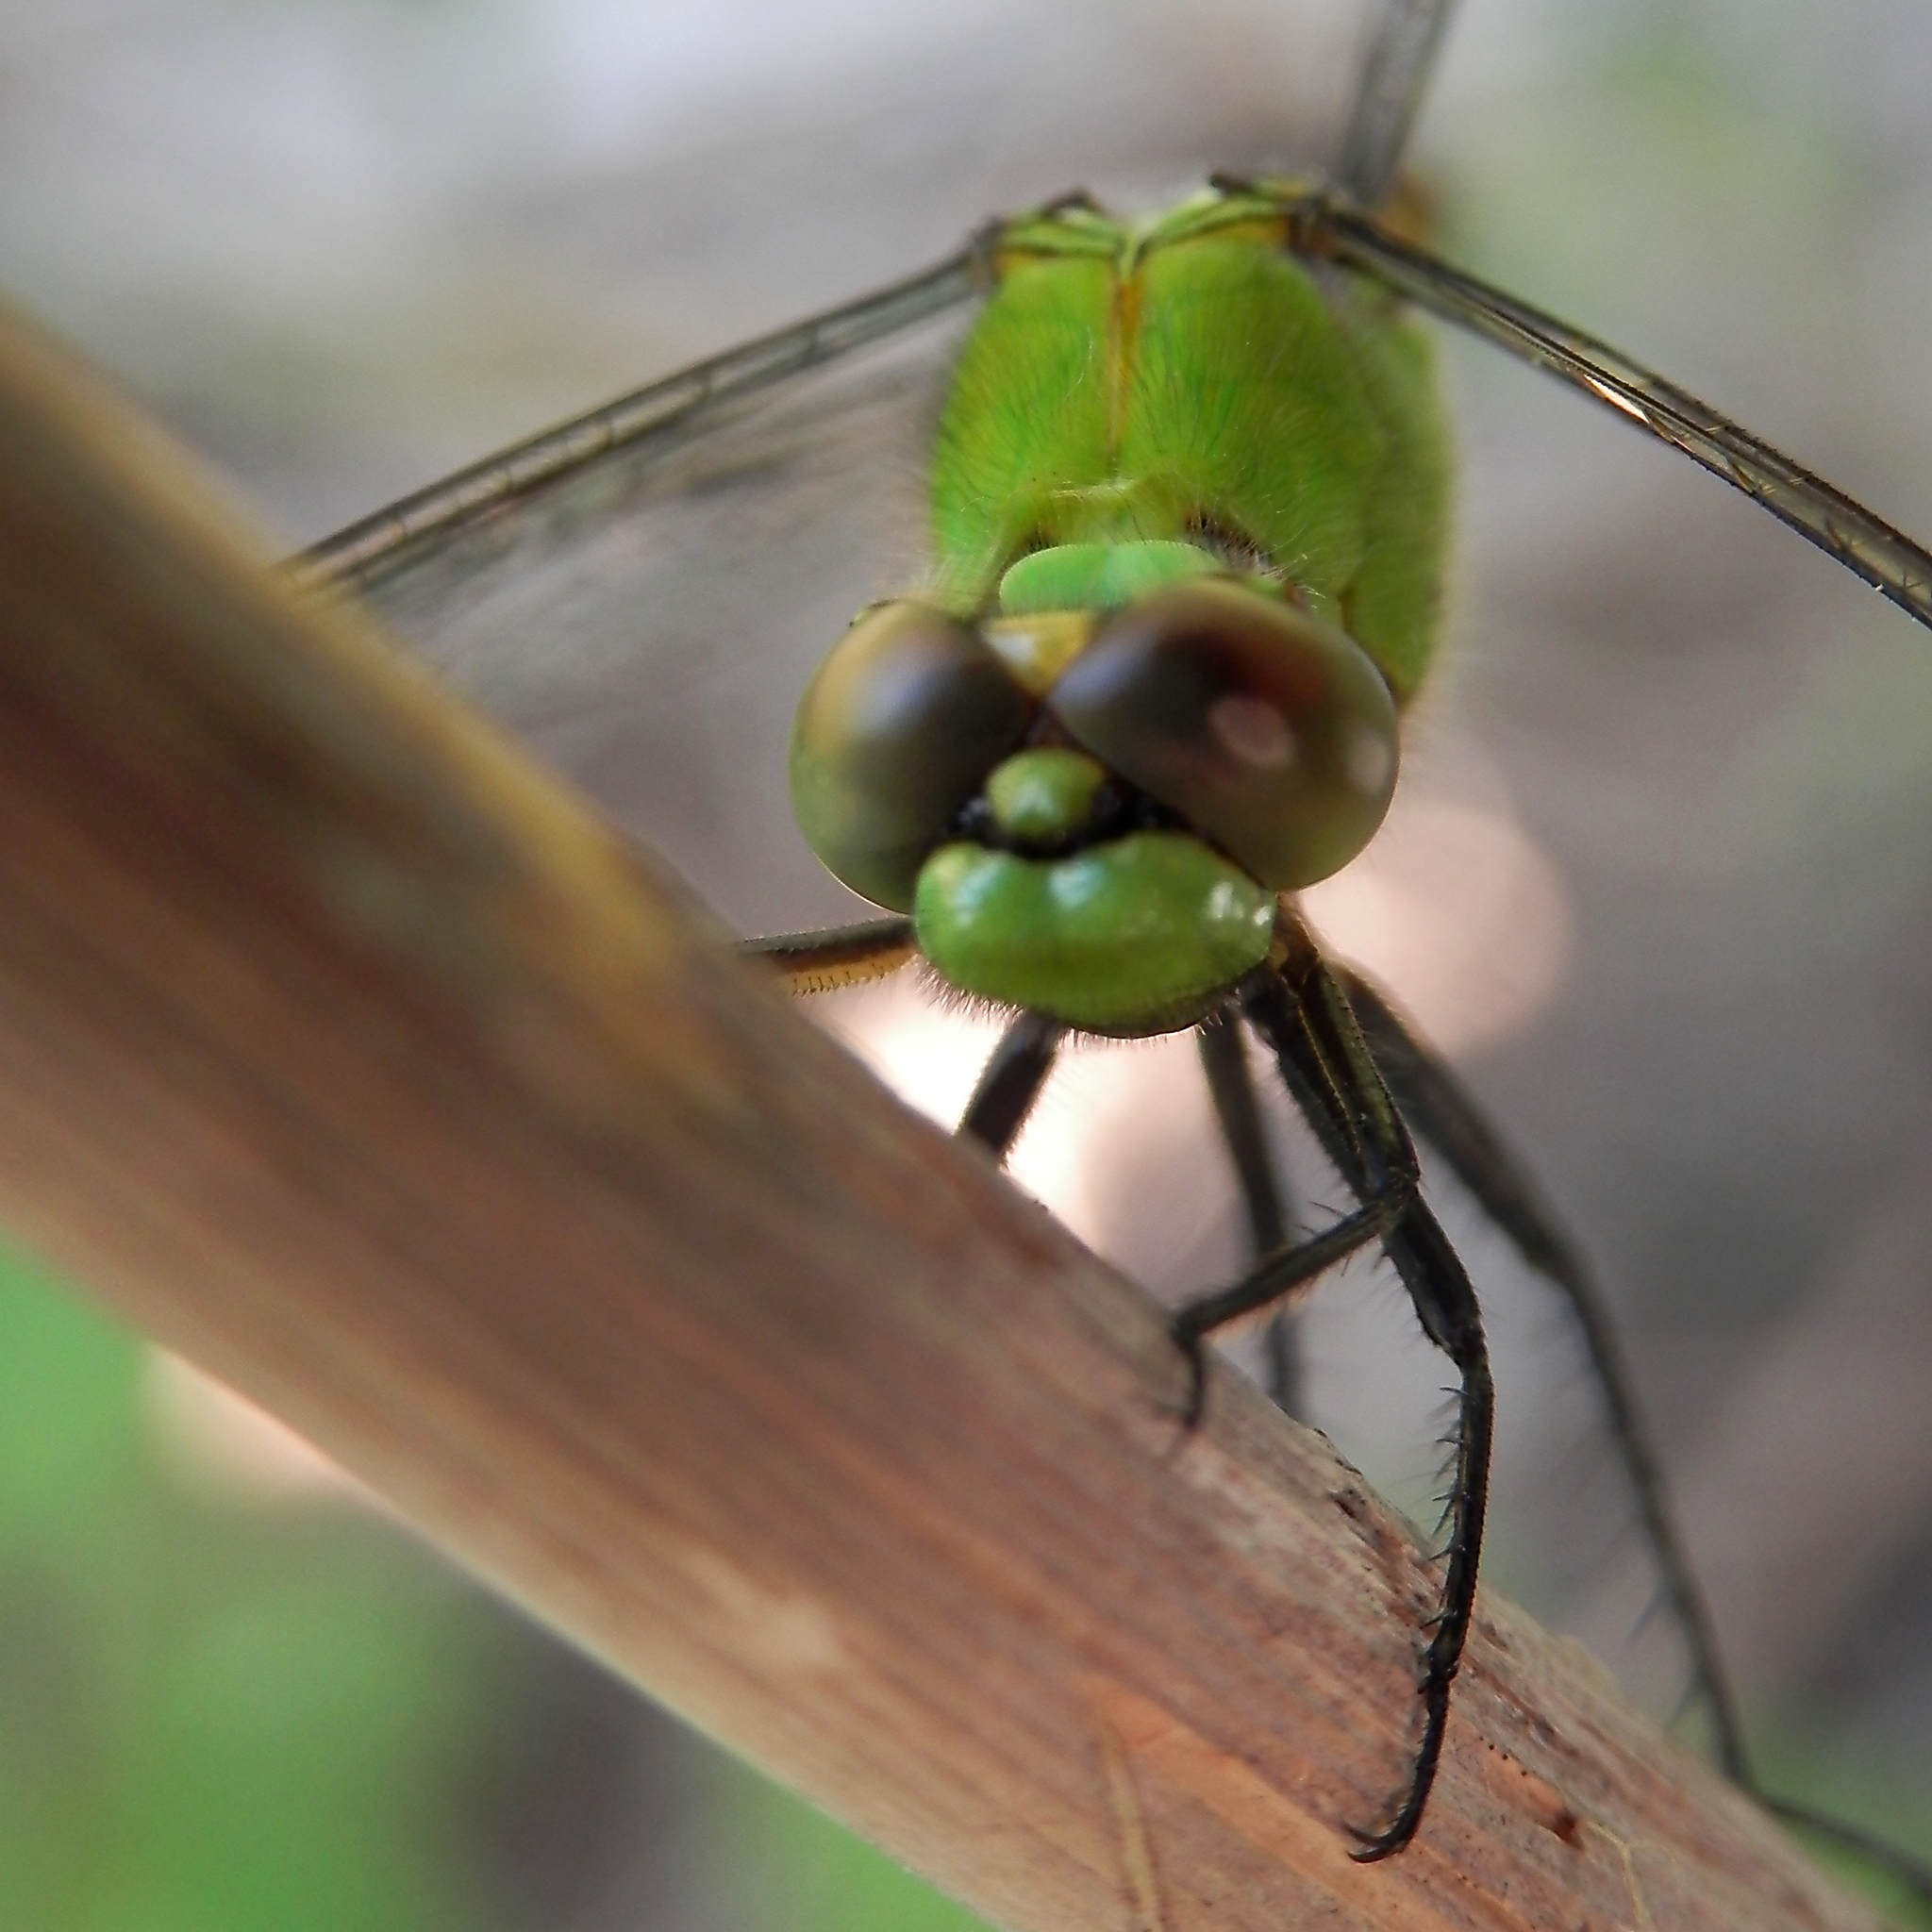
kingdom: Animalia
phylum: Arthropoda
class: Insecta
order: Odonata
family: Libellulidae
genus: Erythemis
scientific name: Erythemis simplicicollis
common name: Eastern pondhawk
